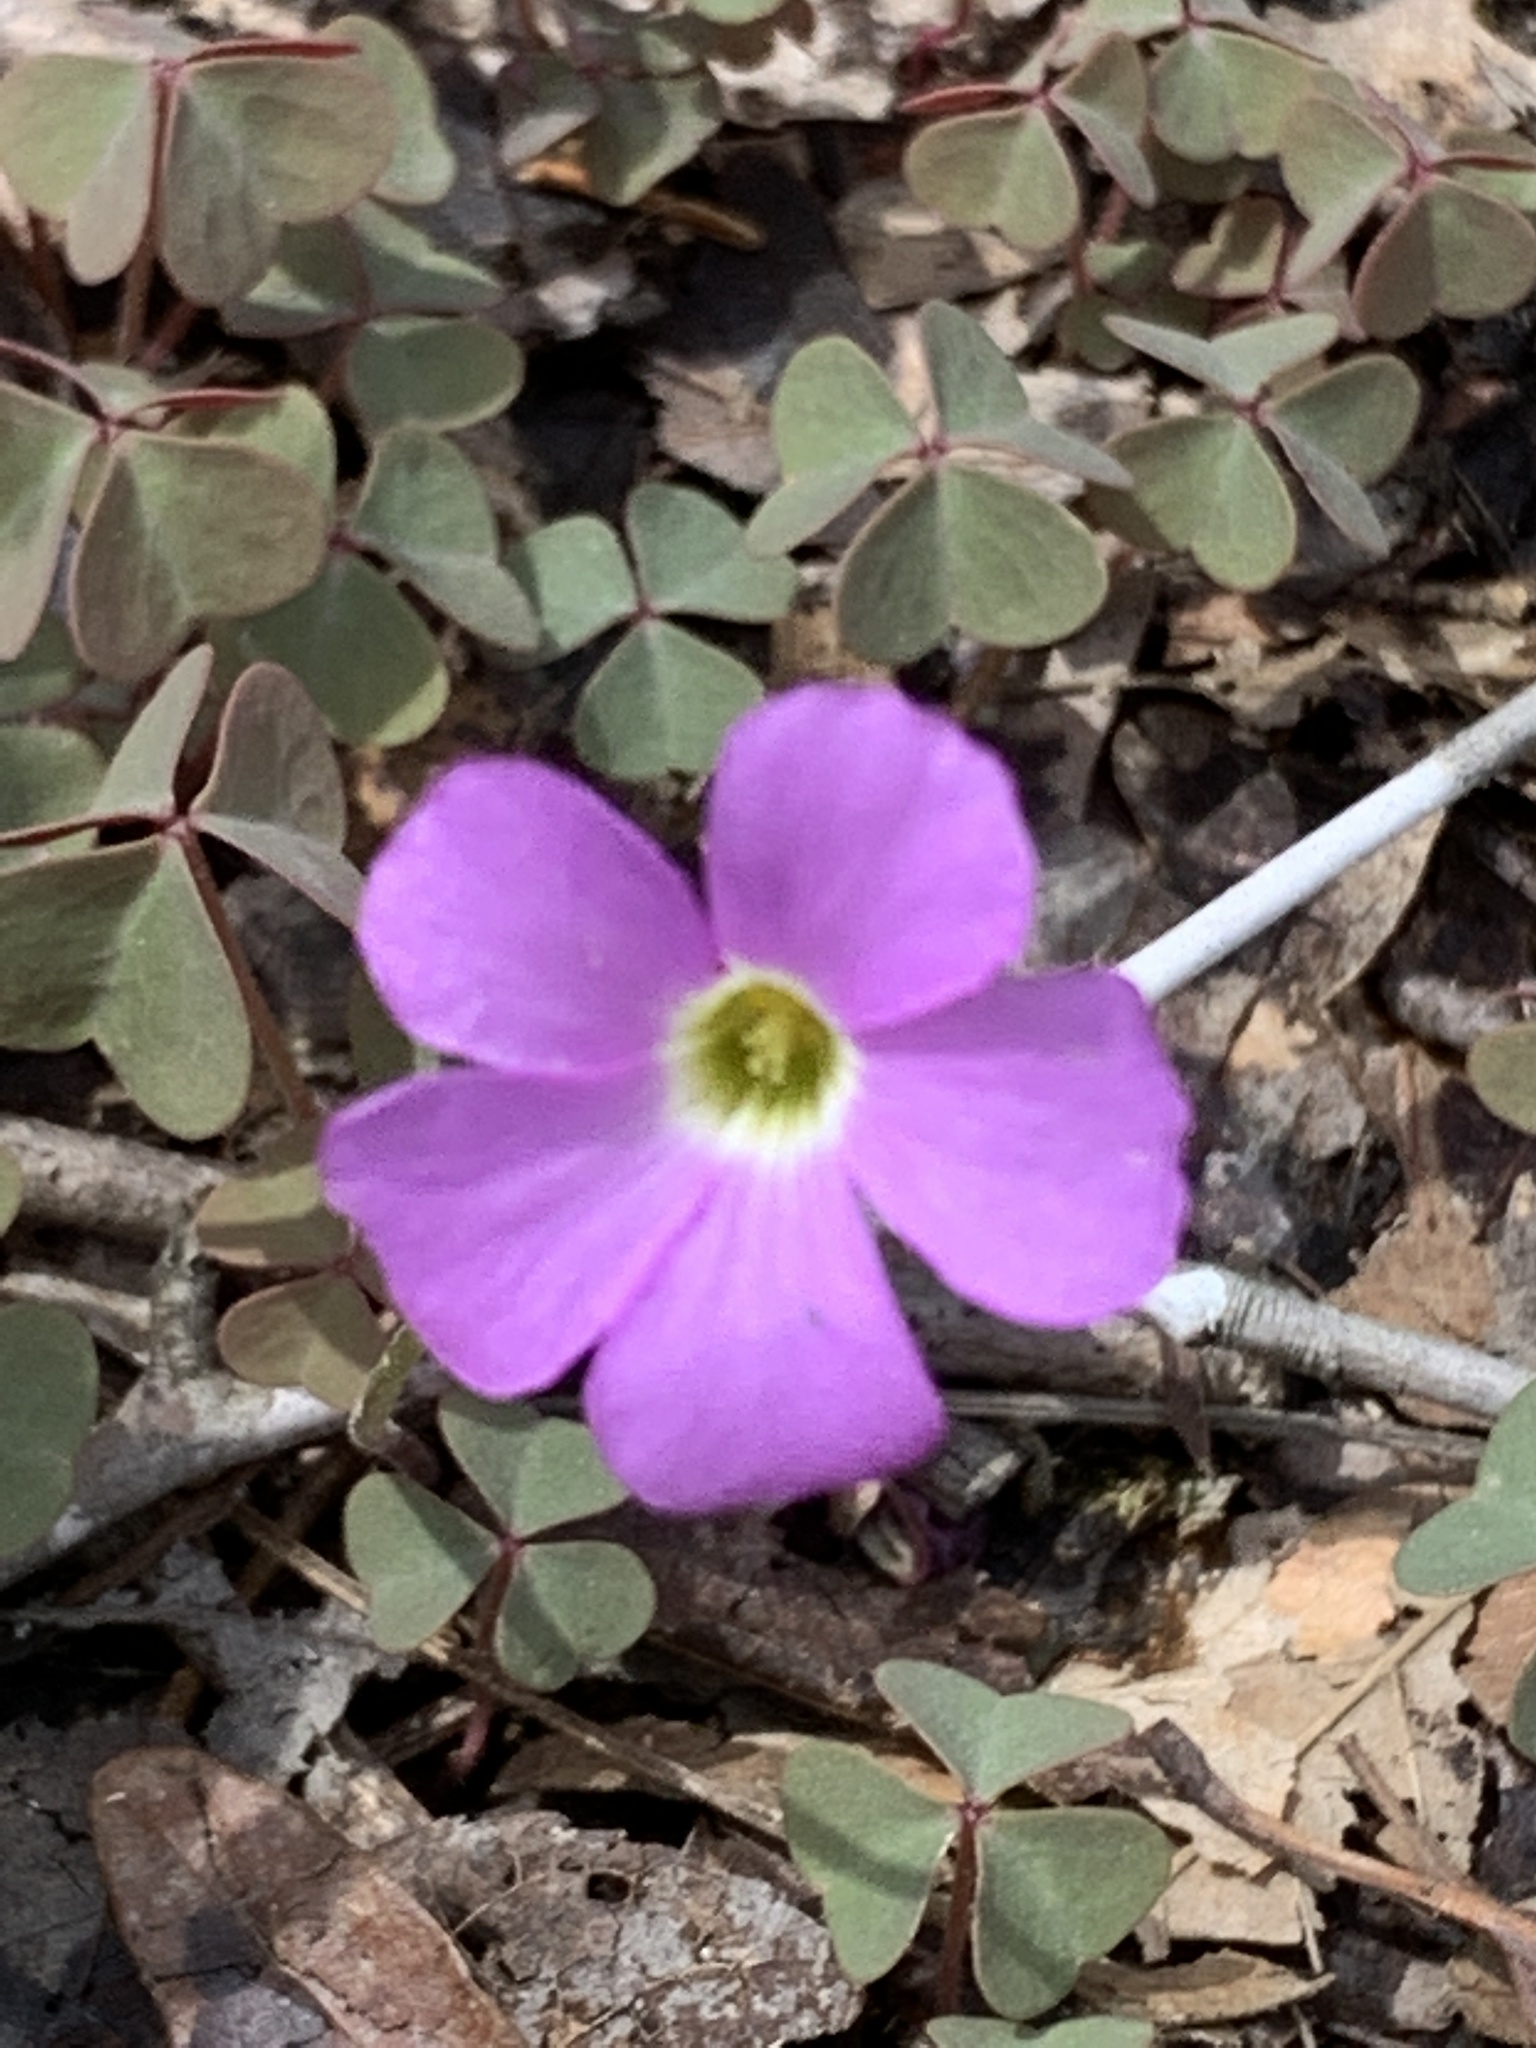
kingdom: Plantae
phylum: Tracheophyta
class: Magnoliopsida
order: Oxalidales
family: Oxalidaceae
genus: Oxalis
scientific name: Oxalis violacea
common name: Violet wood-sorrel
